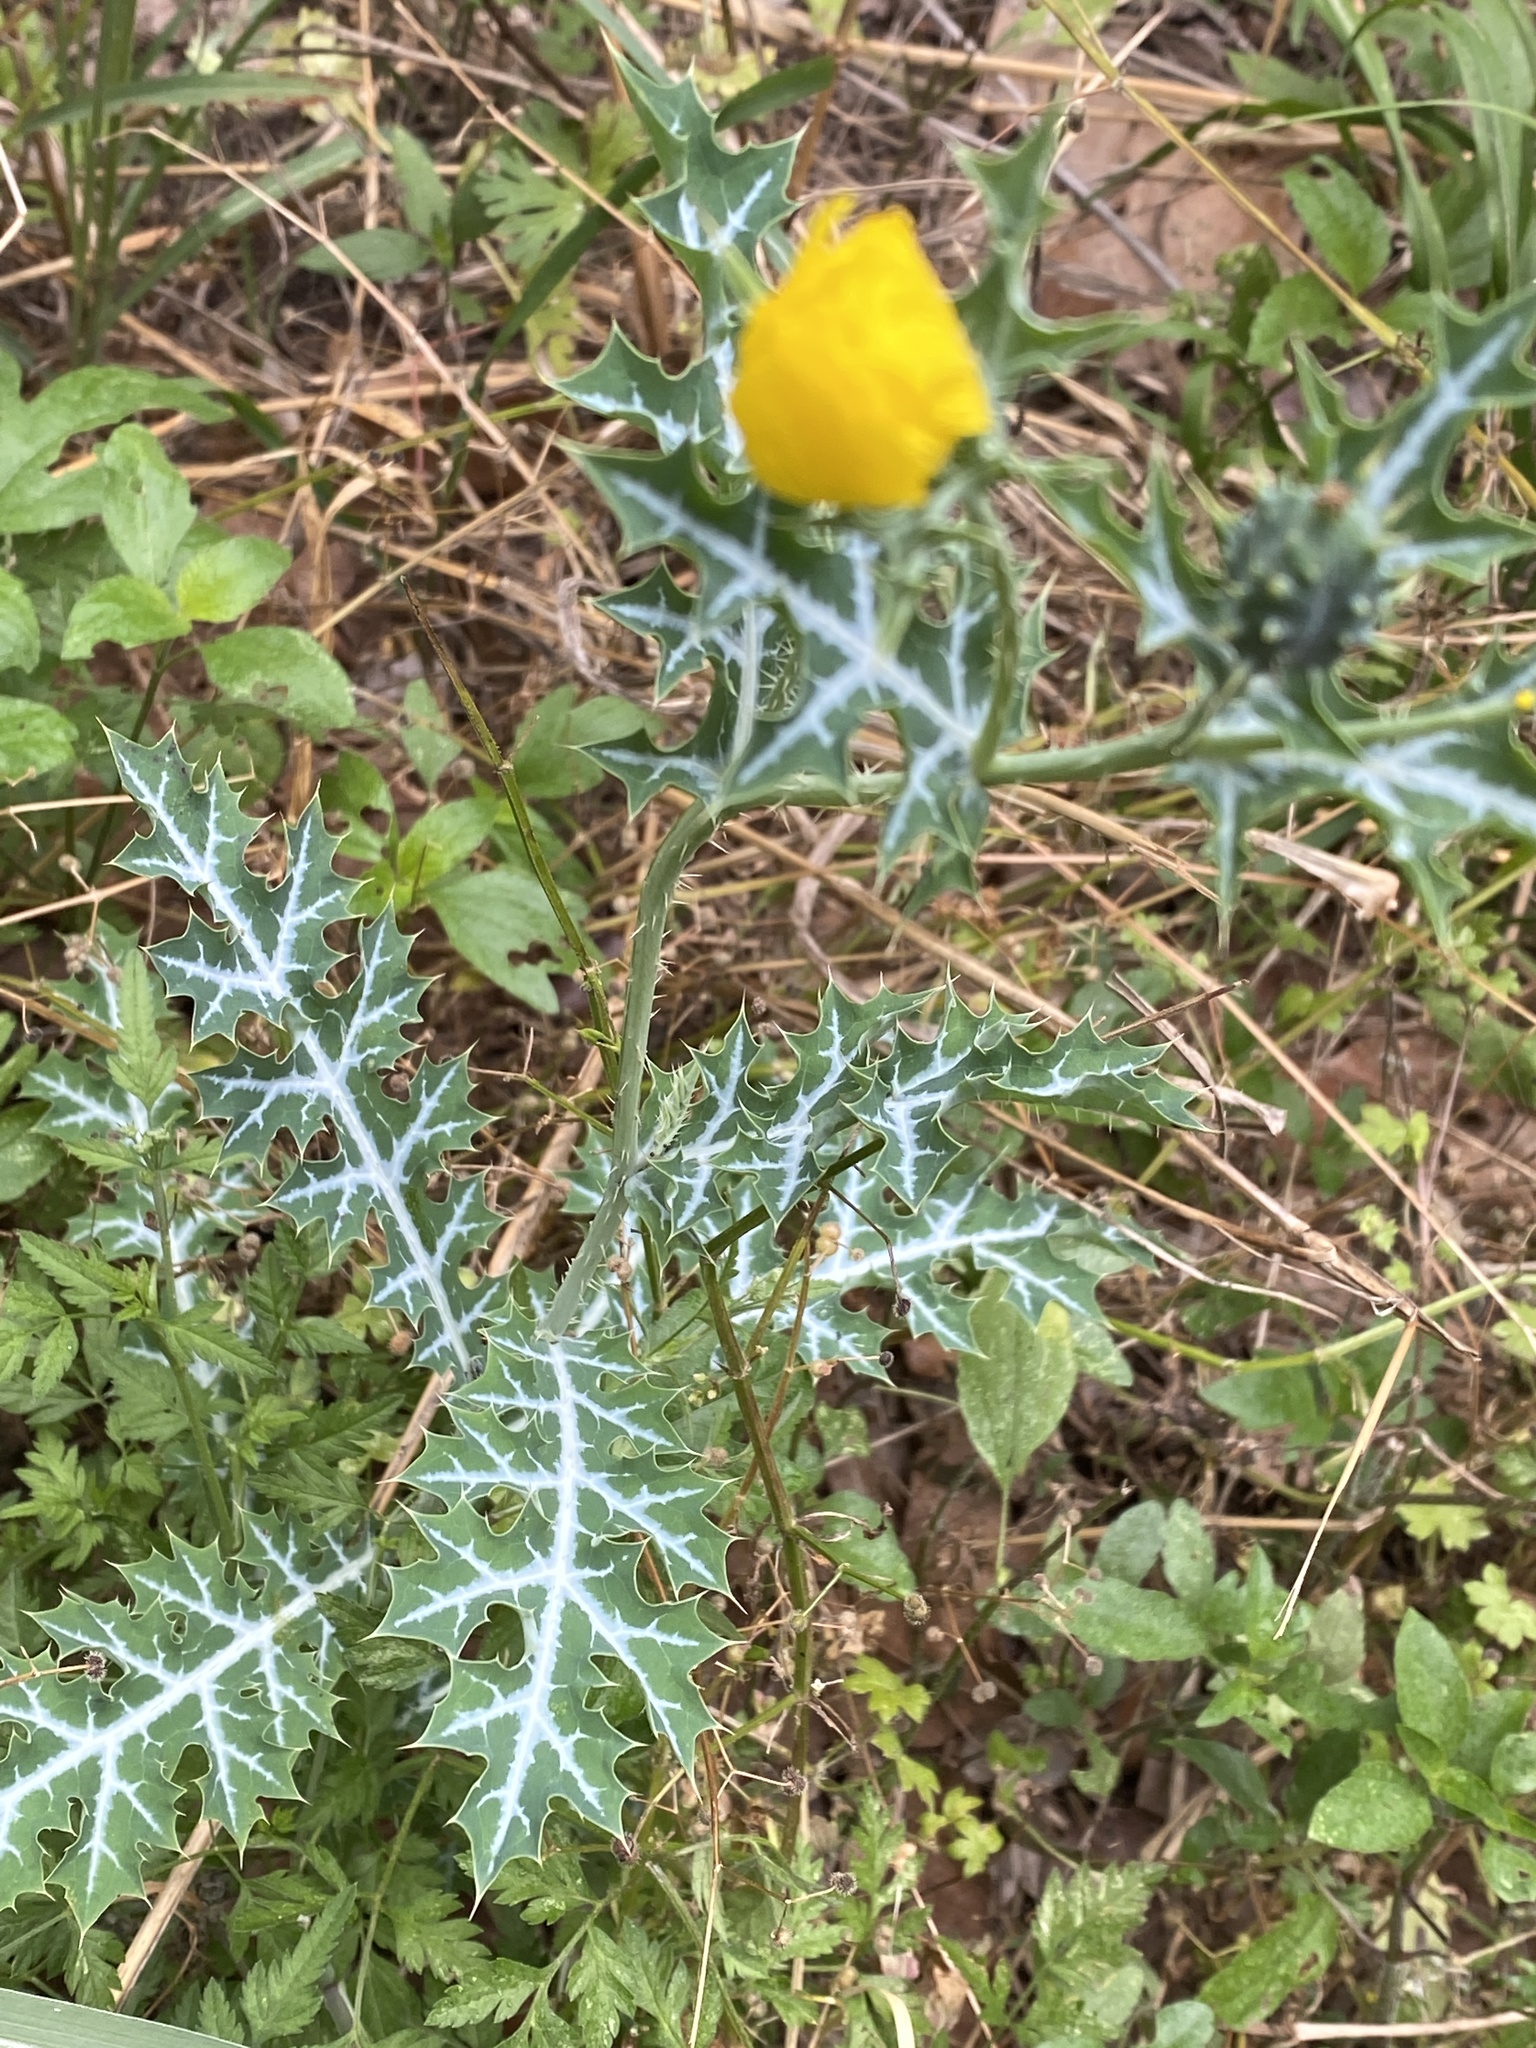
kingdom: Plantae
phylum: Tracheophyta
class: Magnoliopsida
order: Ranunculales
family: Papaveraceae
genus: Argemone
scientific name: Argemone mexicana
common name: Mexican poppy
